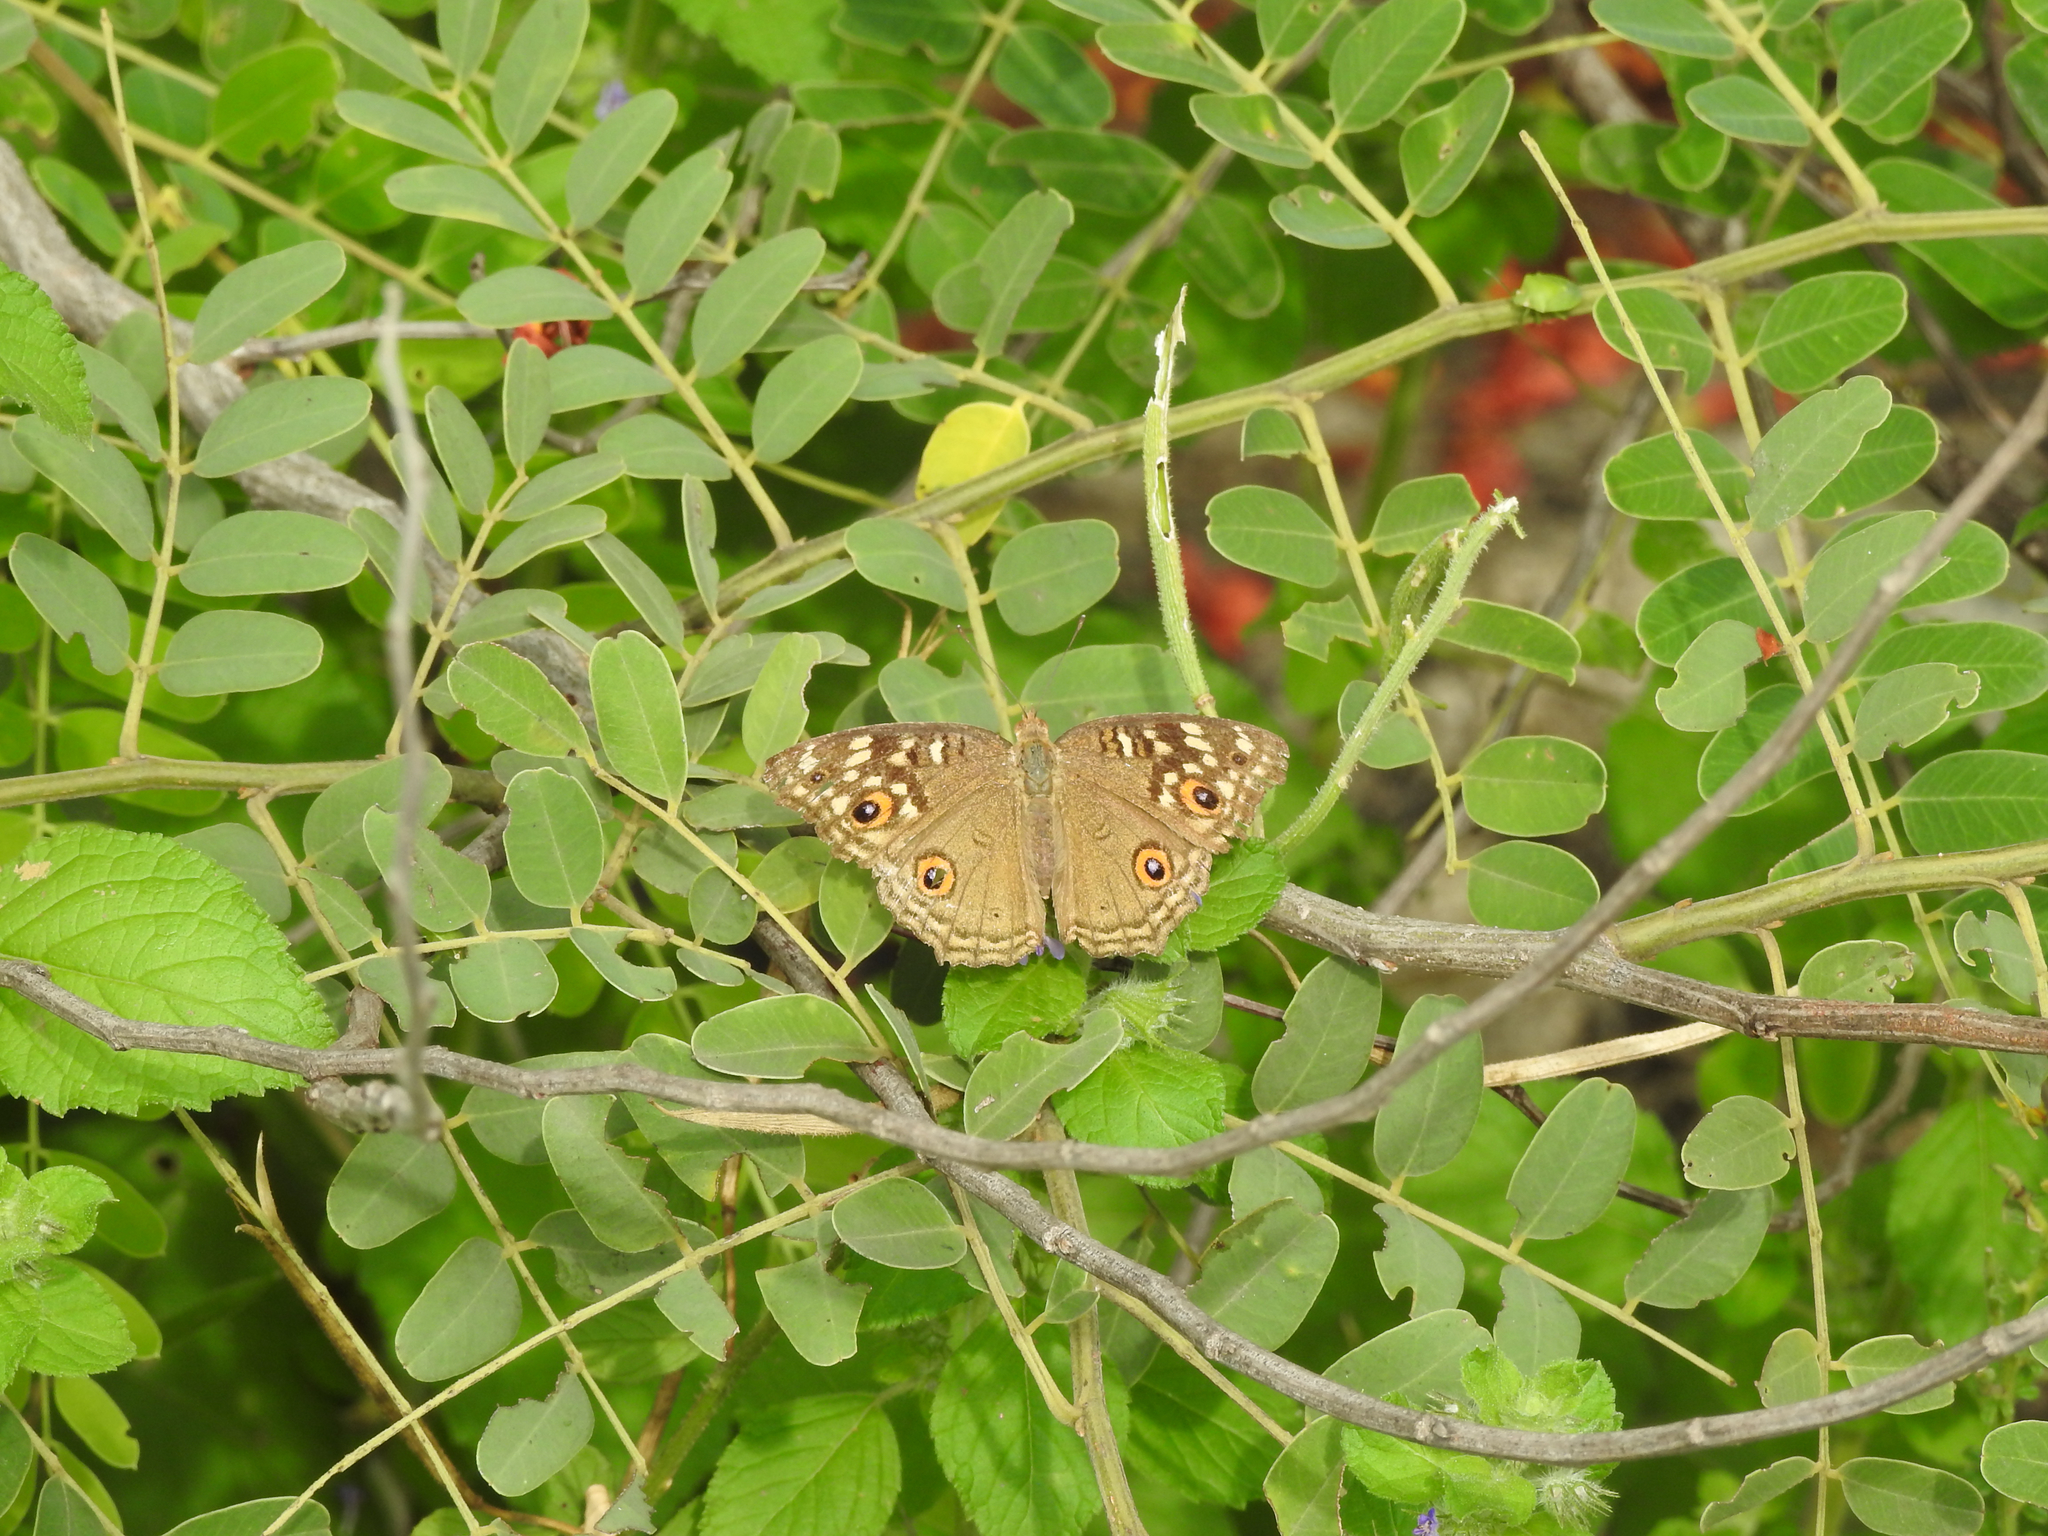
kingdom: Animalia
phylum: Arthropoda
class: Insecta
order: Lepidoptera
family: Nymphalidae
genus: Junonia
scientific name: Junonia lemonias
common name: Lemon pansy
